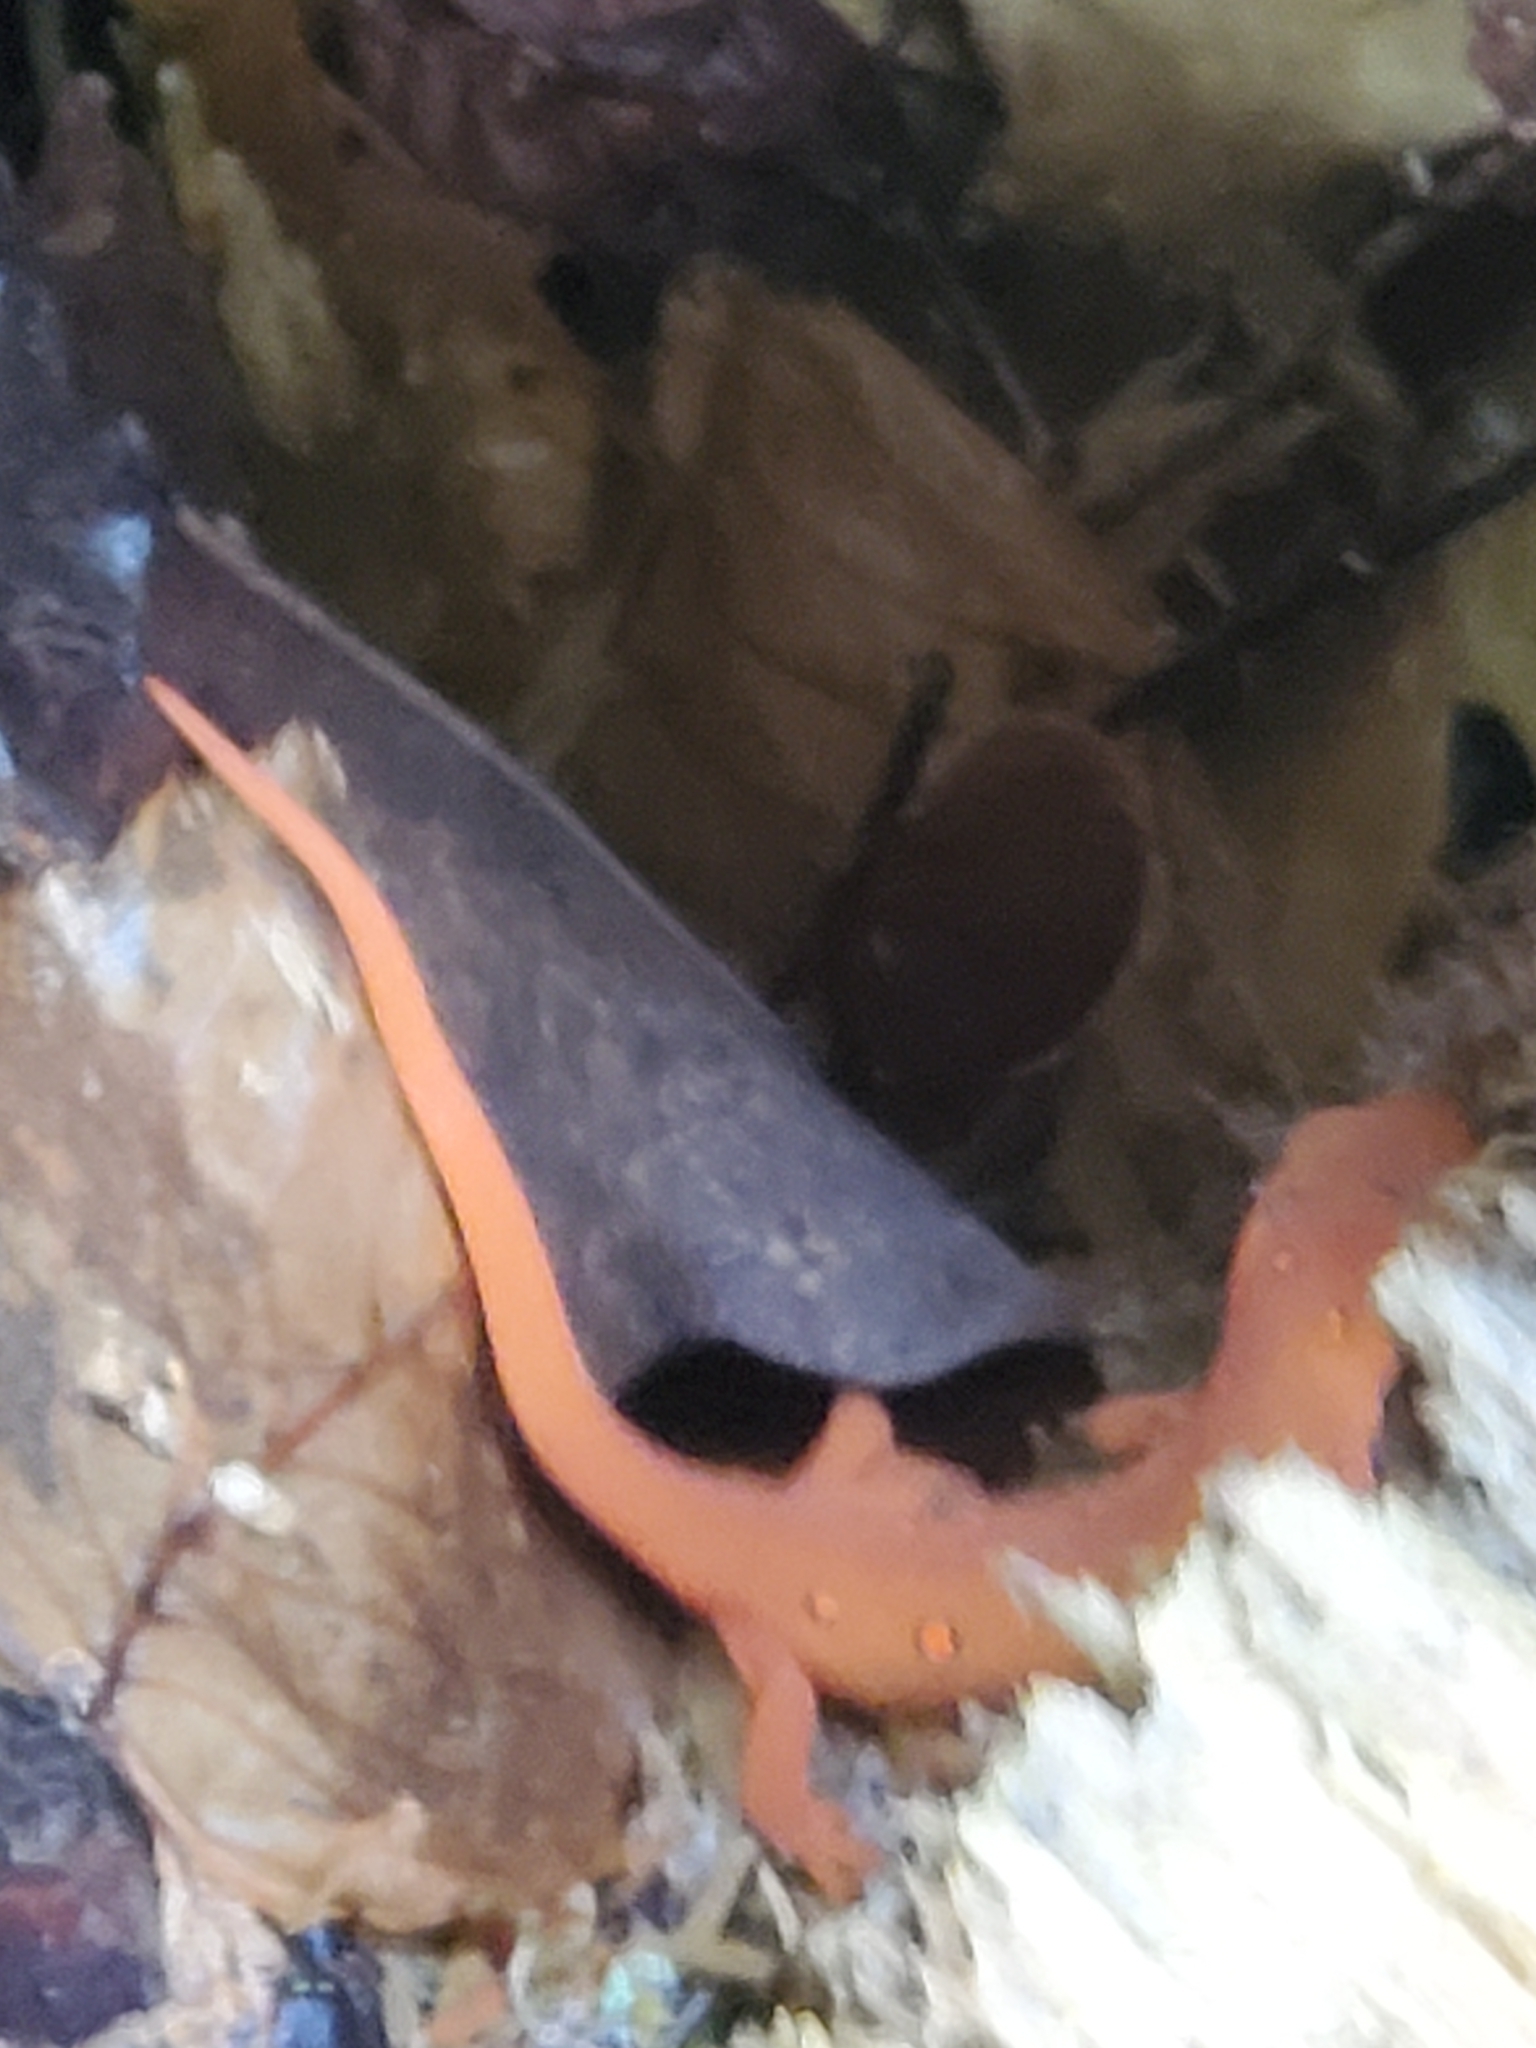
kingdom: Animalia
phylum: Chordata
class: Amphibia
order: Caudata
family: Salamandridae
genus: Notophthalmus
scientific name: Notophthalmus viridescens
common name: Eastern newt
